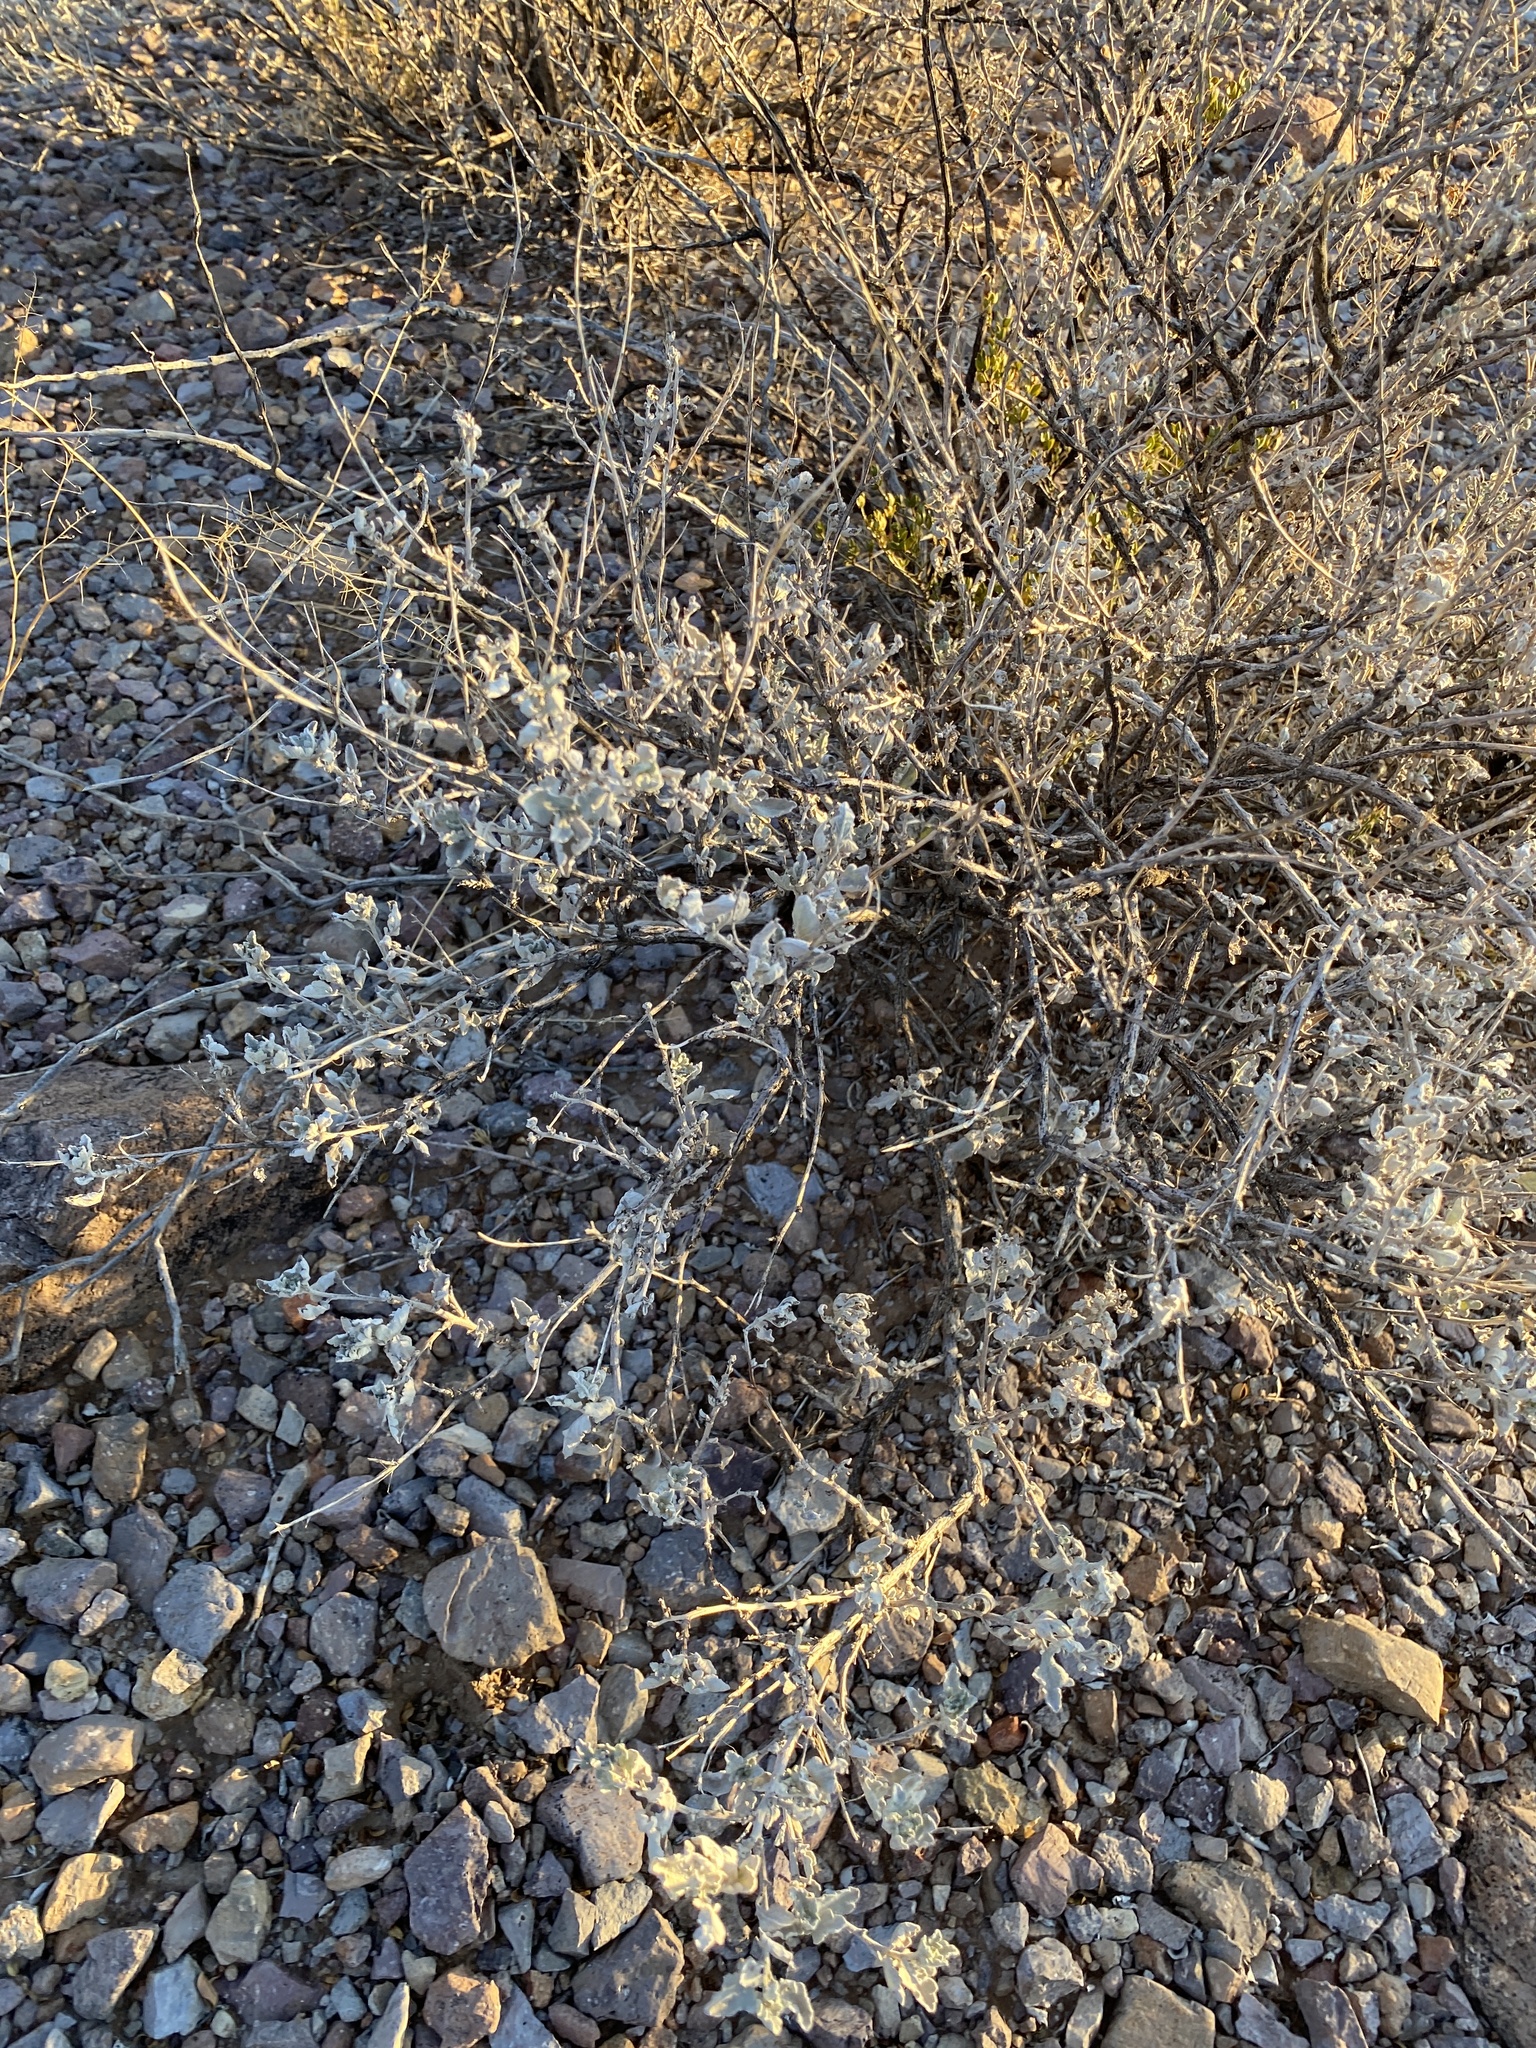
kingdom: Plantae
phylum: Tracheophyta
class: Magnoliopsida
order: Asterales
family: Asteraceae
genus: Parthenium
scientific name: Parthenium incanum
